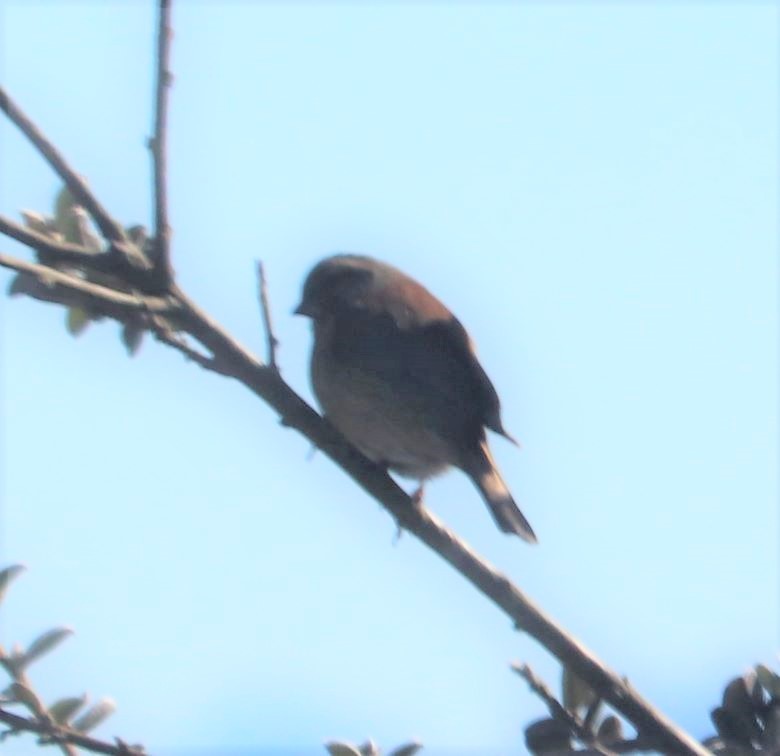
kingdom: Animalia
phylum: Chordata
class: Aves
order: Passeriformes
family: Fringillidae
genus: Crithagra
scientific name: Crithagra totta
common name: Cape siskin
